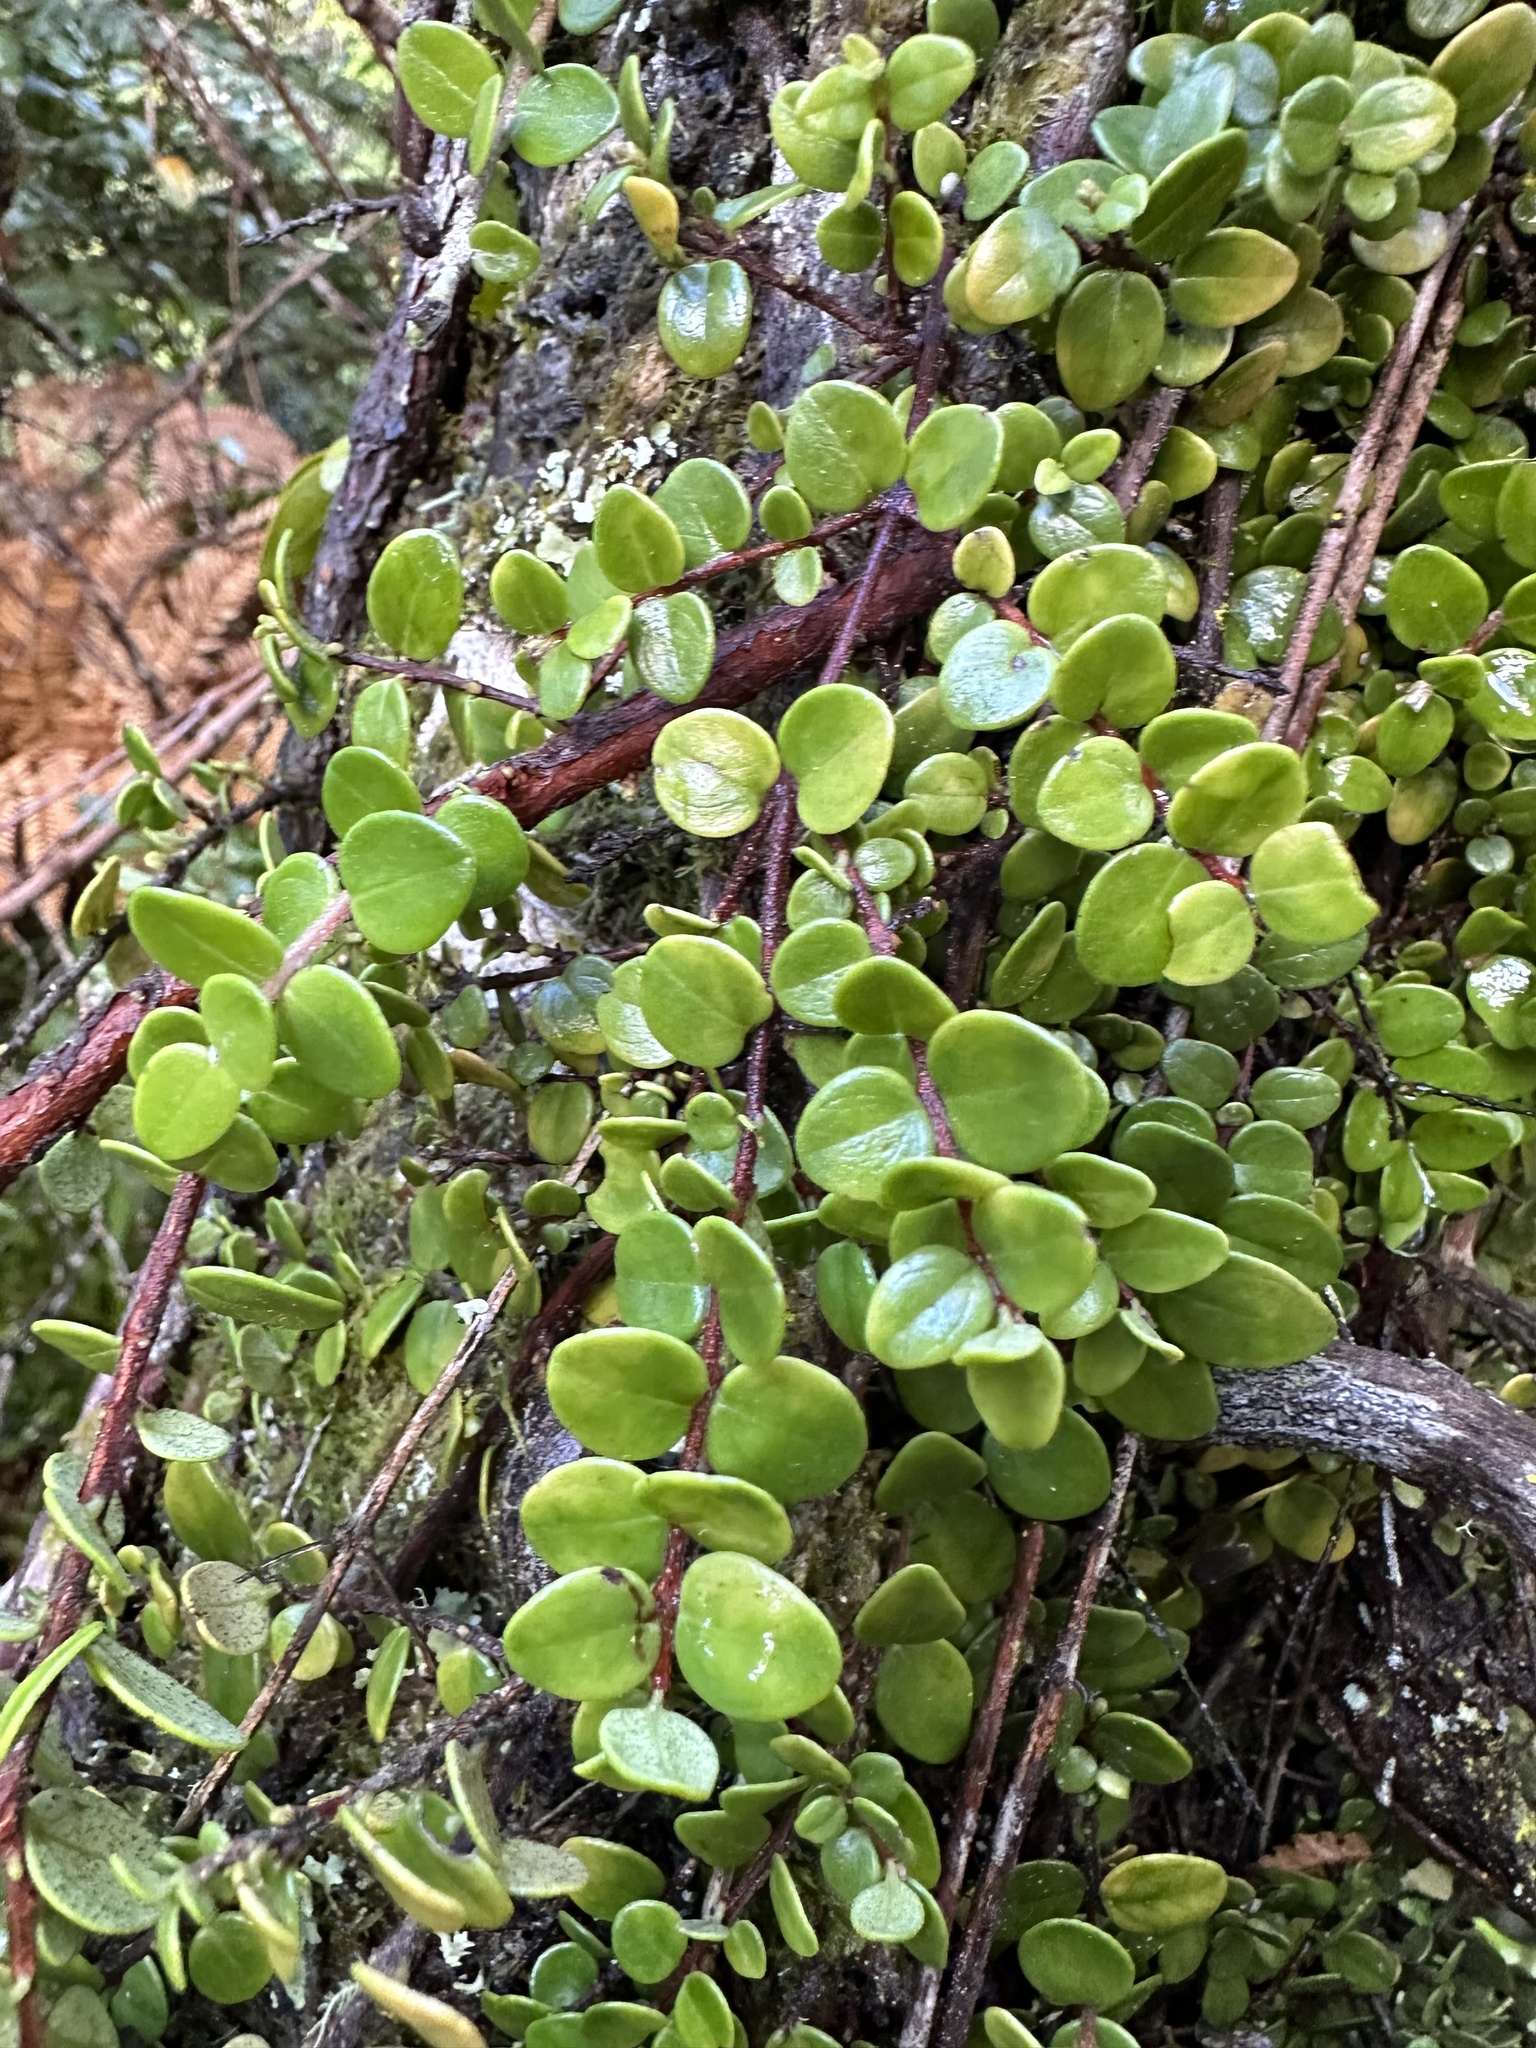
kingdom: Plantae
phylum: Tracheophyta
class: Magnoliopsida
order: Myrtales
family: Myrtaceae
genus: Metrosideros
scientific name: Metrosideros perforata
